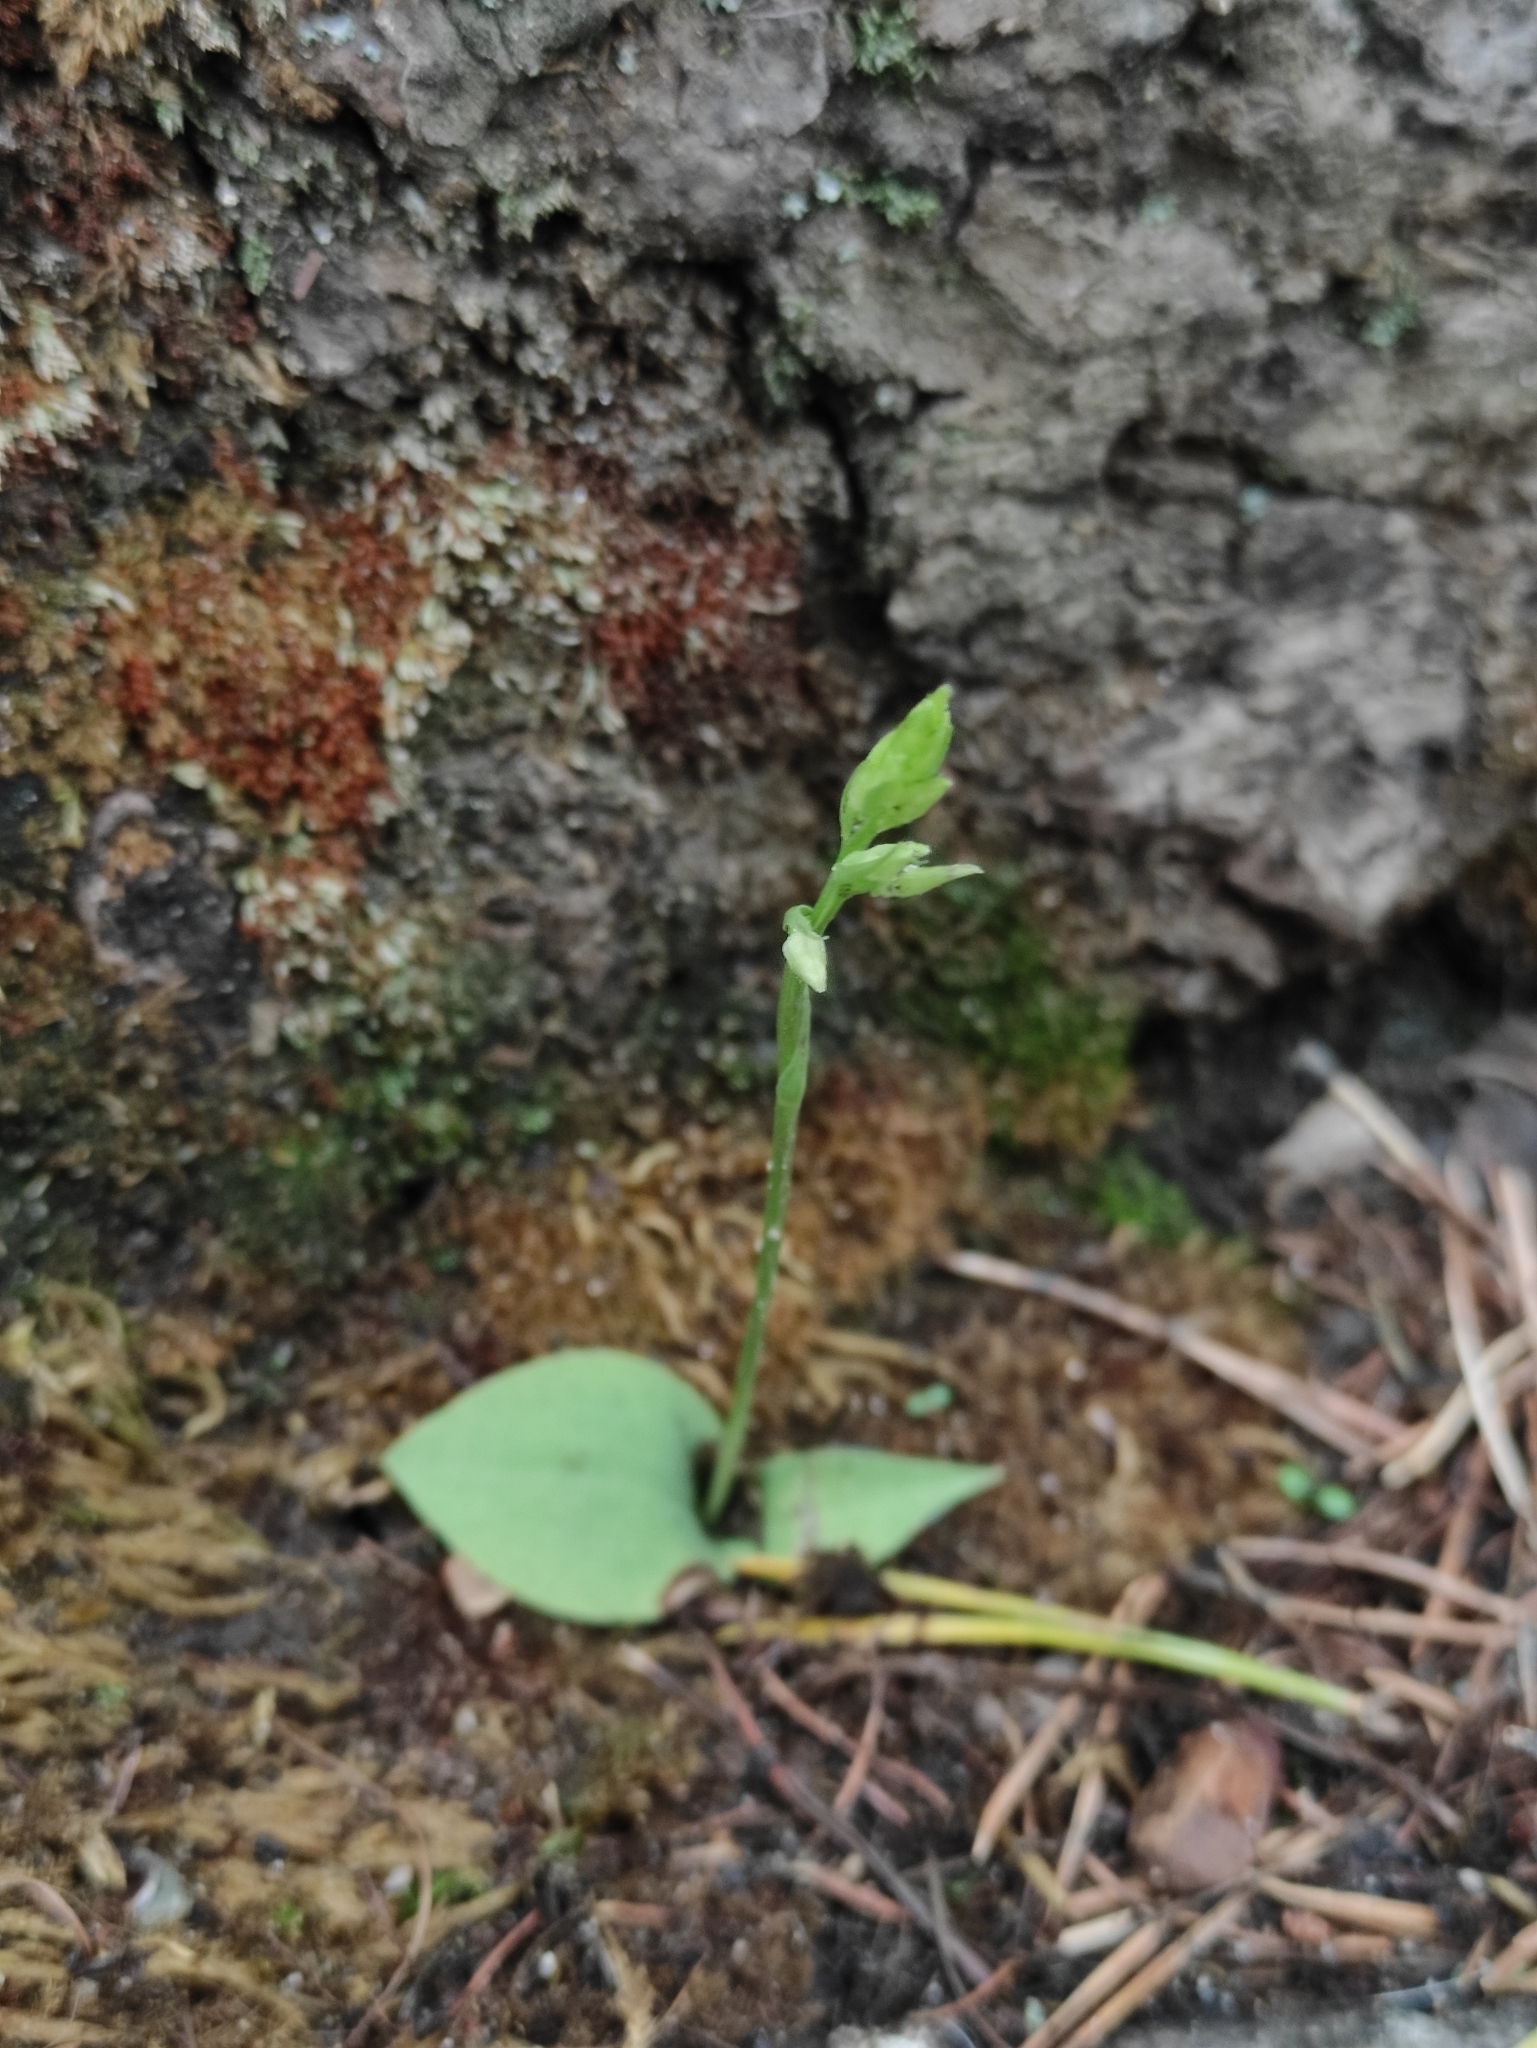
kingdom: Plantae
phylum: Tracheophyta
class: Liliopsida
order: Asparagales
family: Orchidaceae
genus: Hemipilia
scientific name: Hemipilia cucullata
